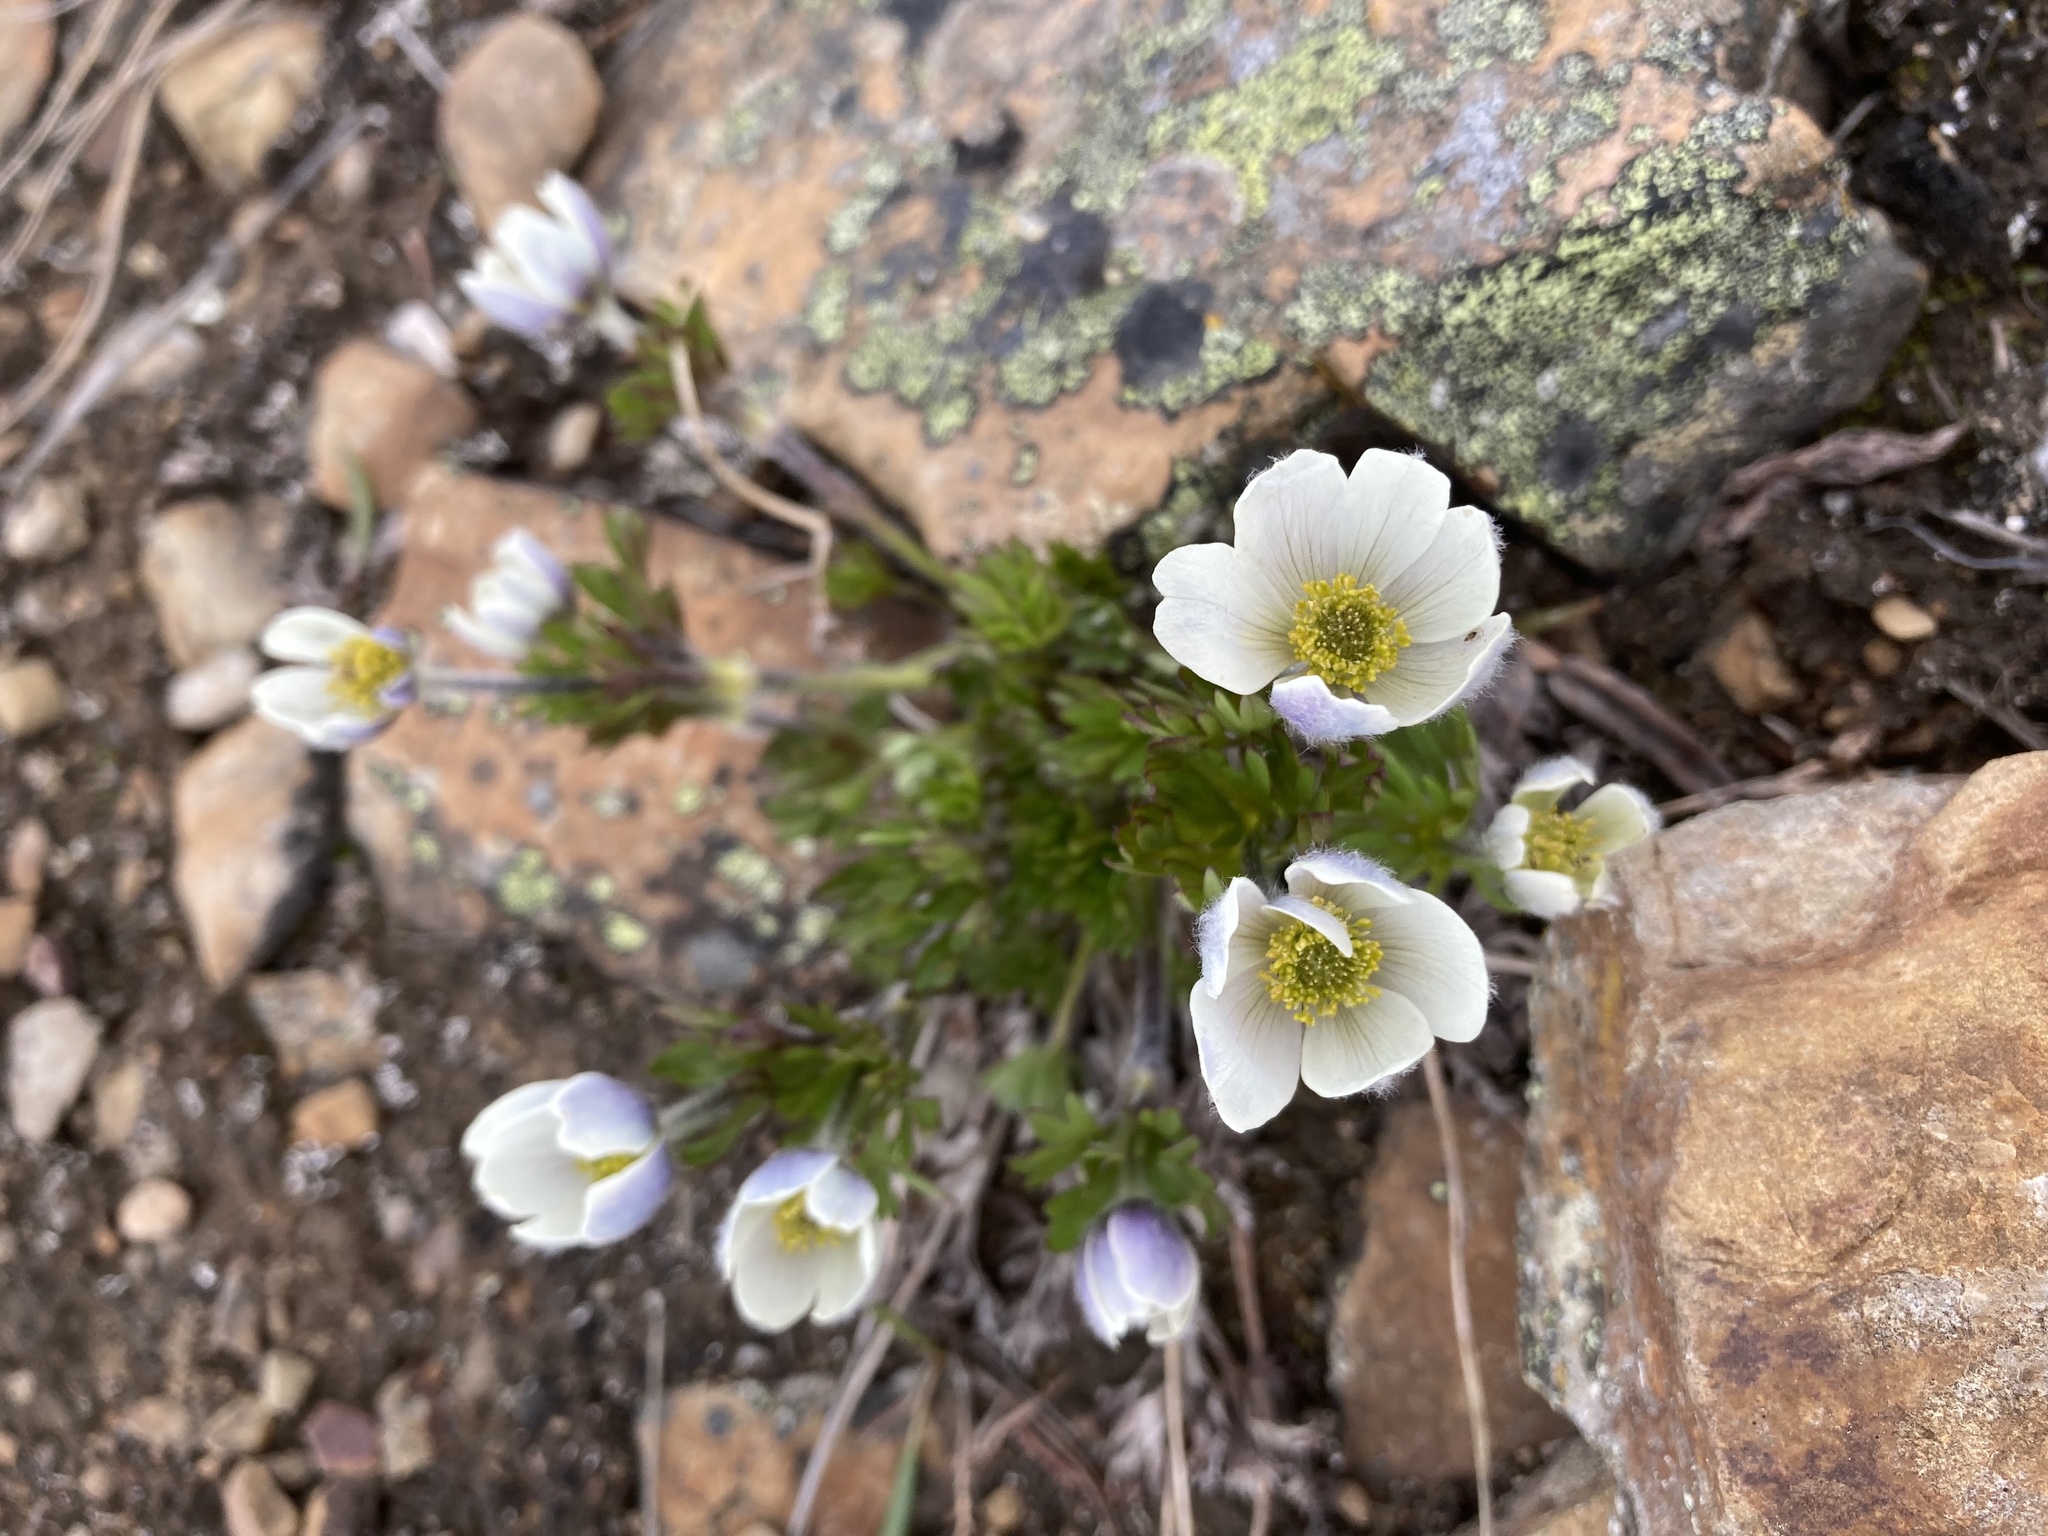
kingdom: Plantae
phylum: Tracheophyta
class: Magnoliopsida
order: Ranunculales
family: Ranunculaceae
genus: Anemone
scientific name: Anemone drummondii
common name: Drummond's anemone
